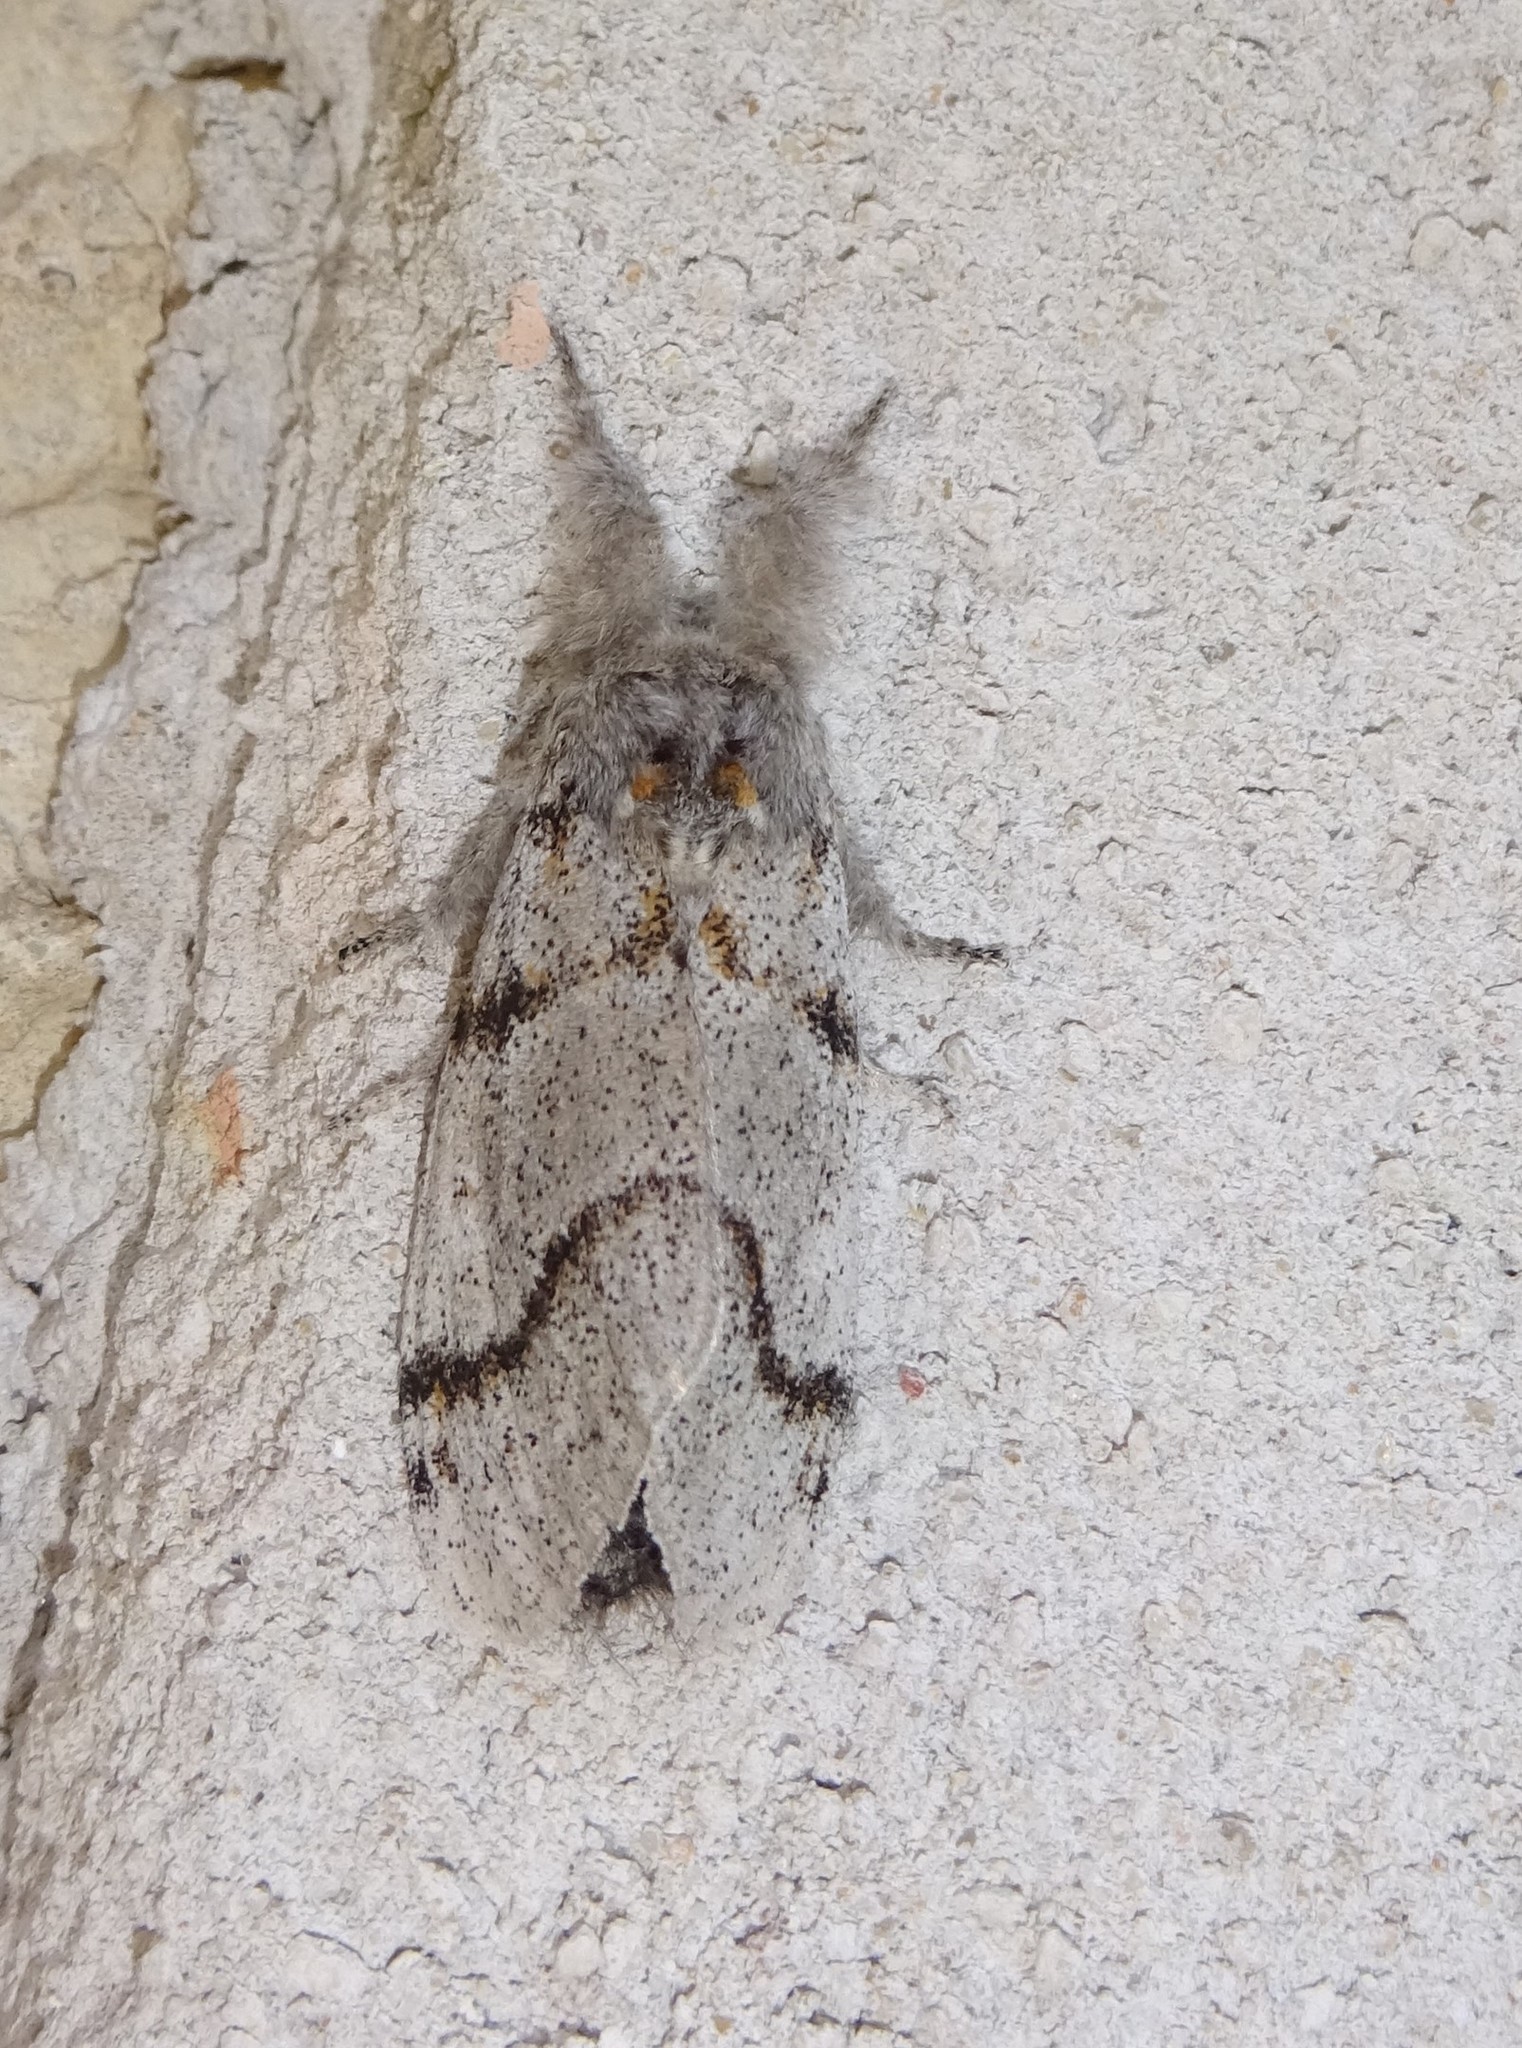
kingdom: Animalia
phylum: Arthropoda
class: Insecta
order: Lepidoptera
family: Erebidae
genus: Calliteara
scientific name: Calliteara Dicallomera fascelina
